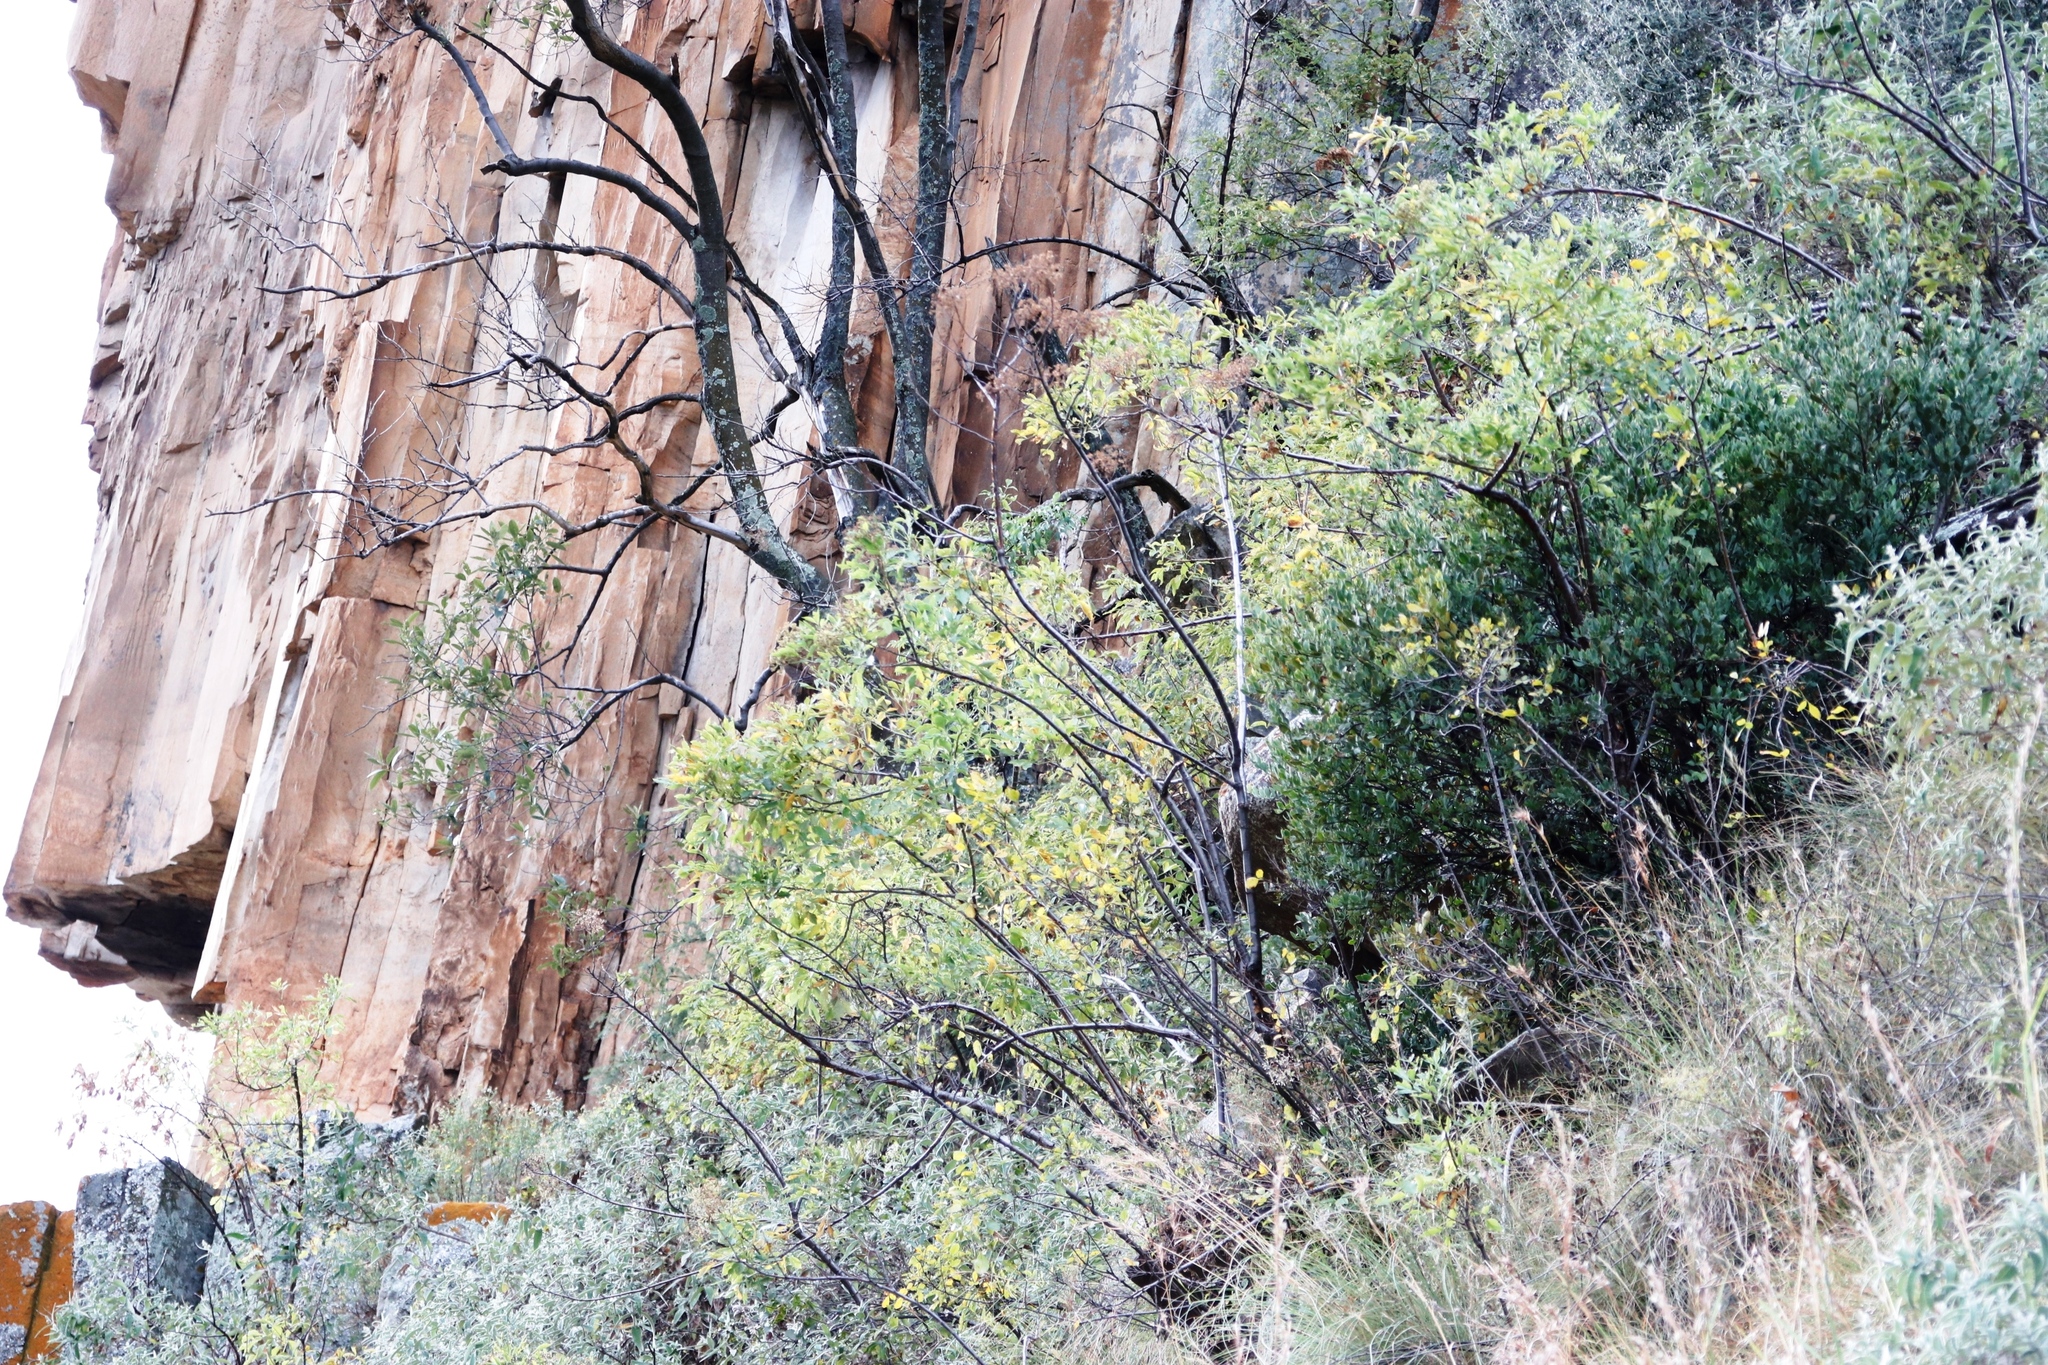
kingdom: Plantae
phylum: Tracheophyta
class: Magnoliopsida
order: Apiales
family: Apiaceae
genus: Heteromorpha
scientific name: Heteromorpha arborescens
